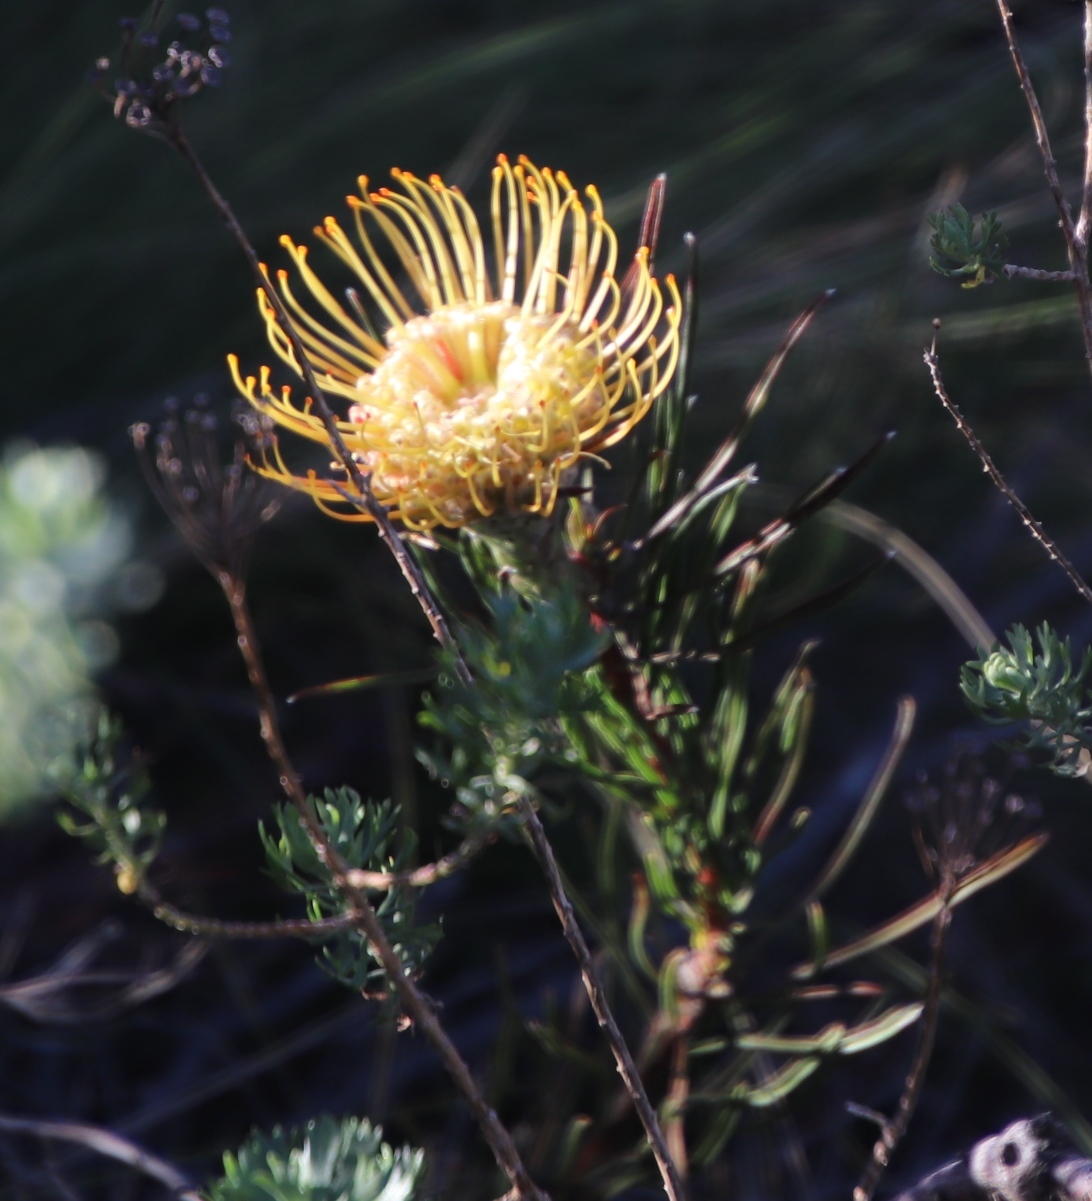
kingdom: Plantae
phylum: Tracheophyta
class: Magnoliopsida
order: Proteales
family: Proteaceae
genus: Leucospermum
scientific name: Leucospermum lineare
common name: Needle-leaf pincushion
